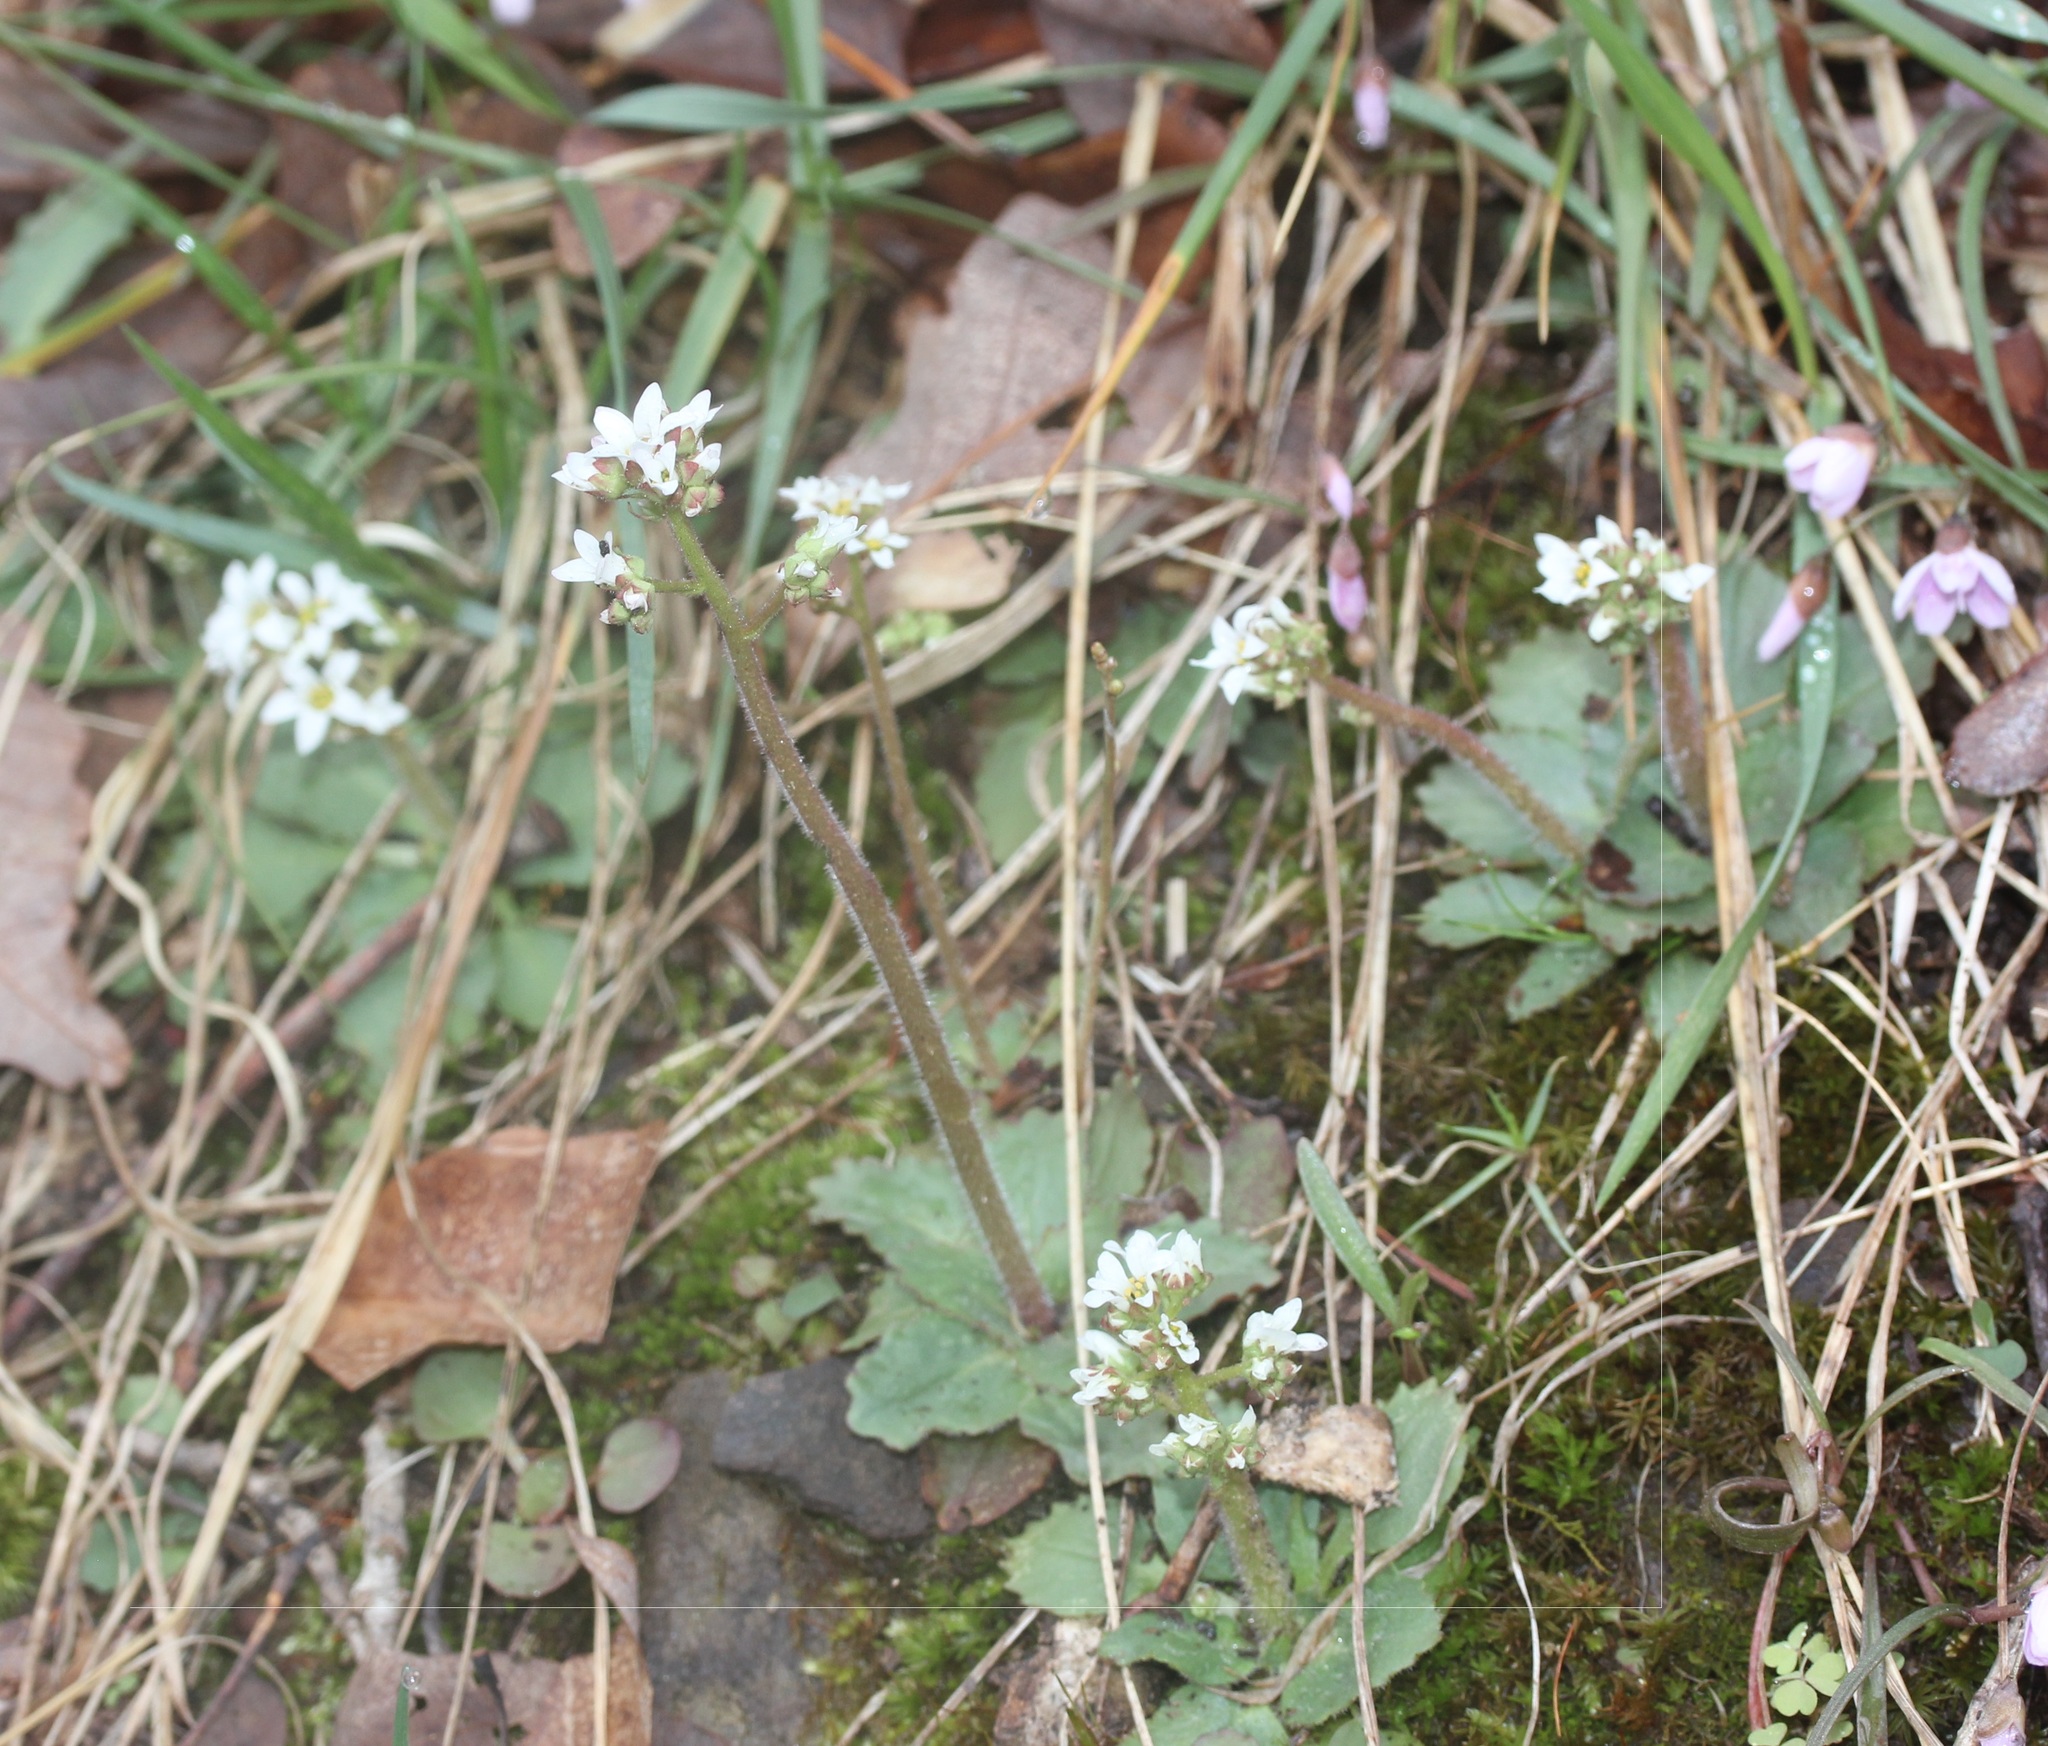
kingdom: Plantae
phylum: Tracheophyta
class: Magnoliopsida
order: Saxifragales
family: Saxifragaceae
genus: Micranthes
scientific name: Micranthes virginiensis
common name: Early saxifrage
